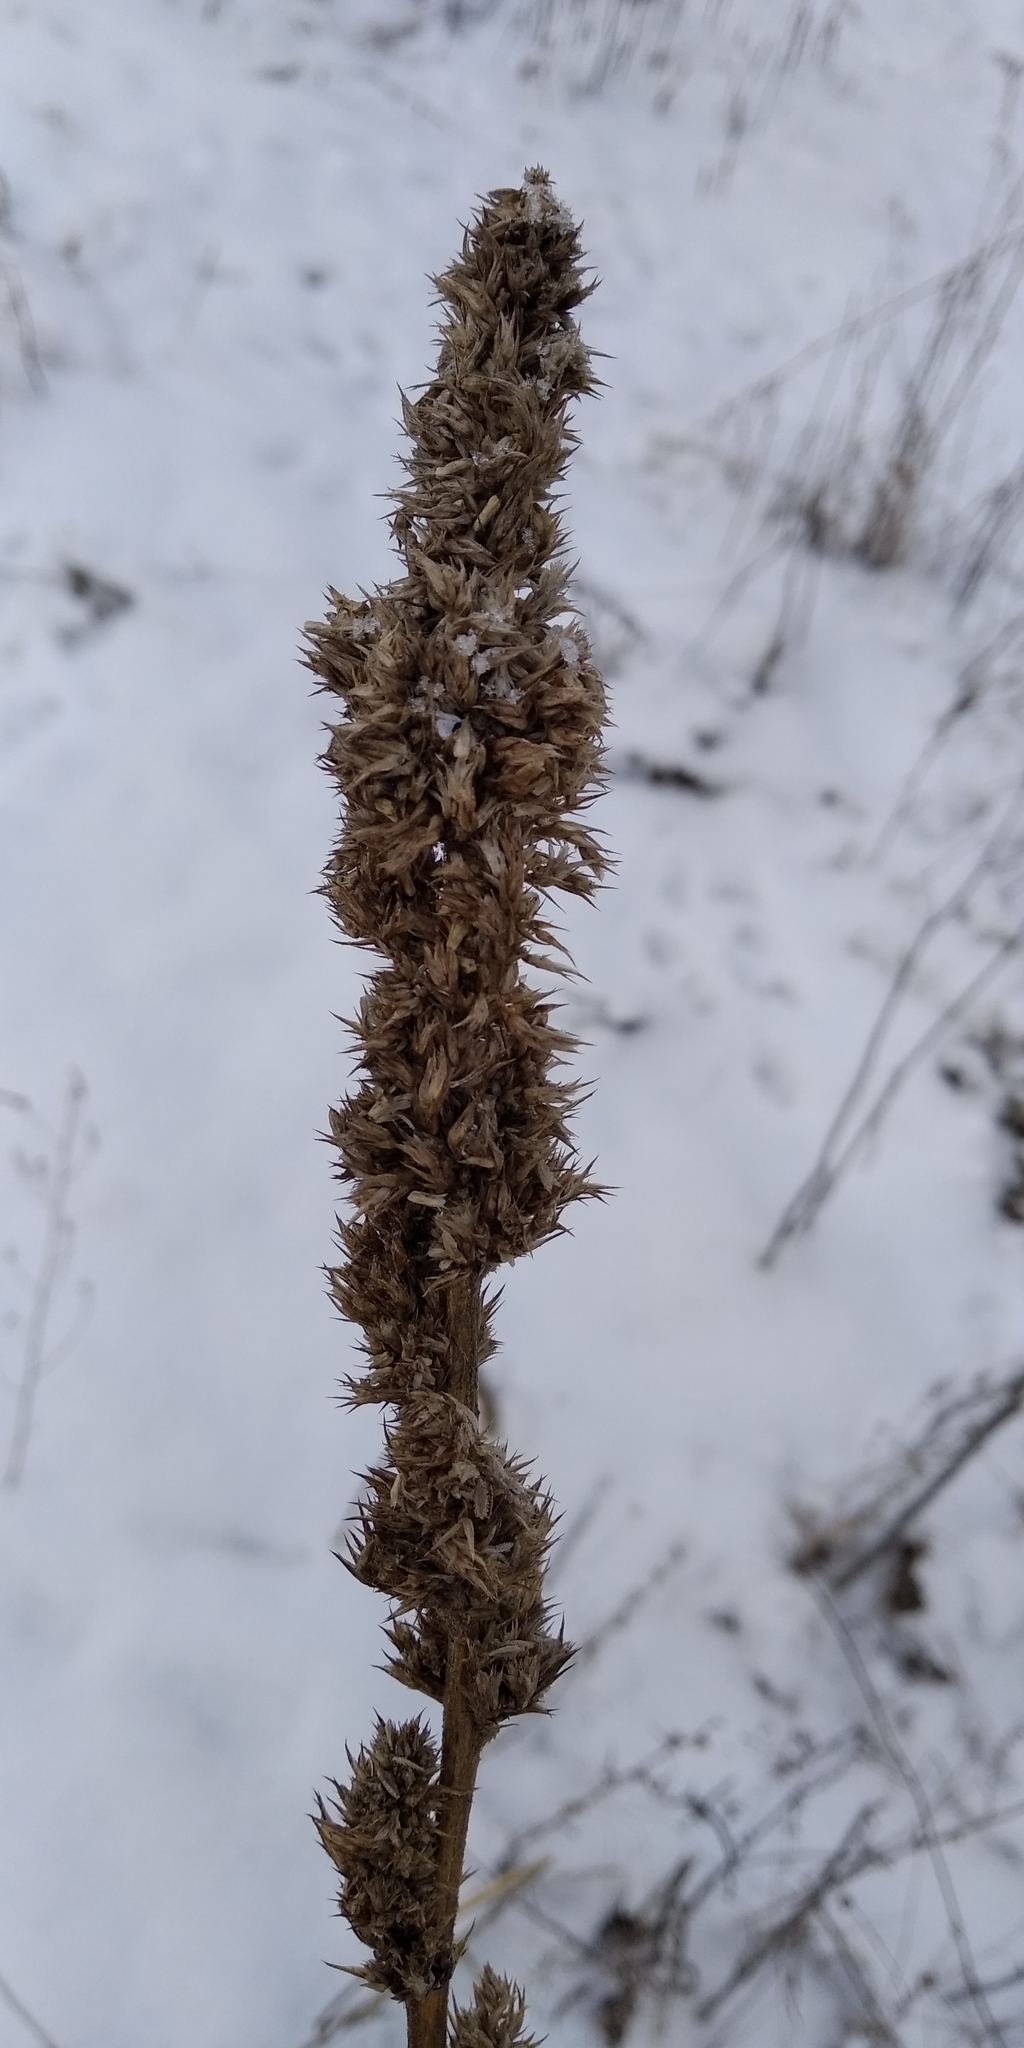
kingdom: Plantae
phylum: Tracheophyta
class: Magnoliopsida
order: Caryophyllales
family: Amaranthaceae
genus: Amaranthus
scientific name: Amaranthus retroflexus
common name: Redroot amaranth
